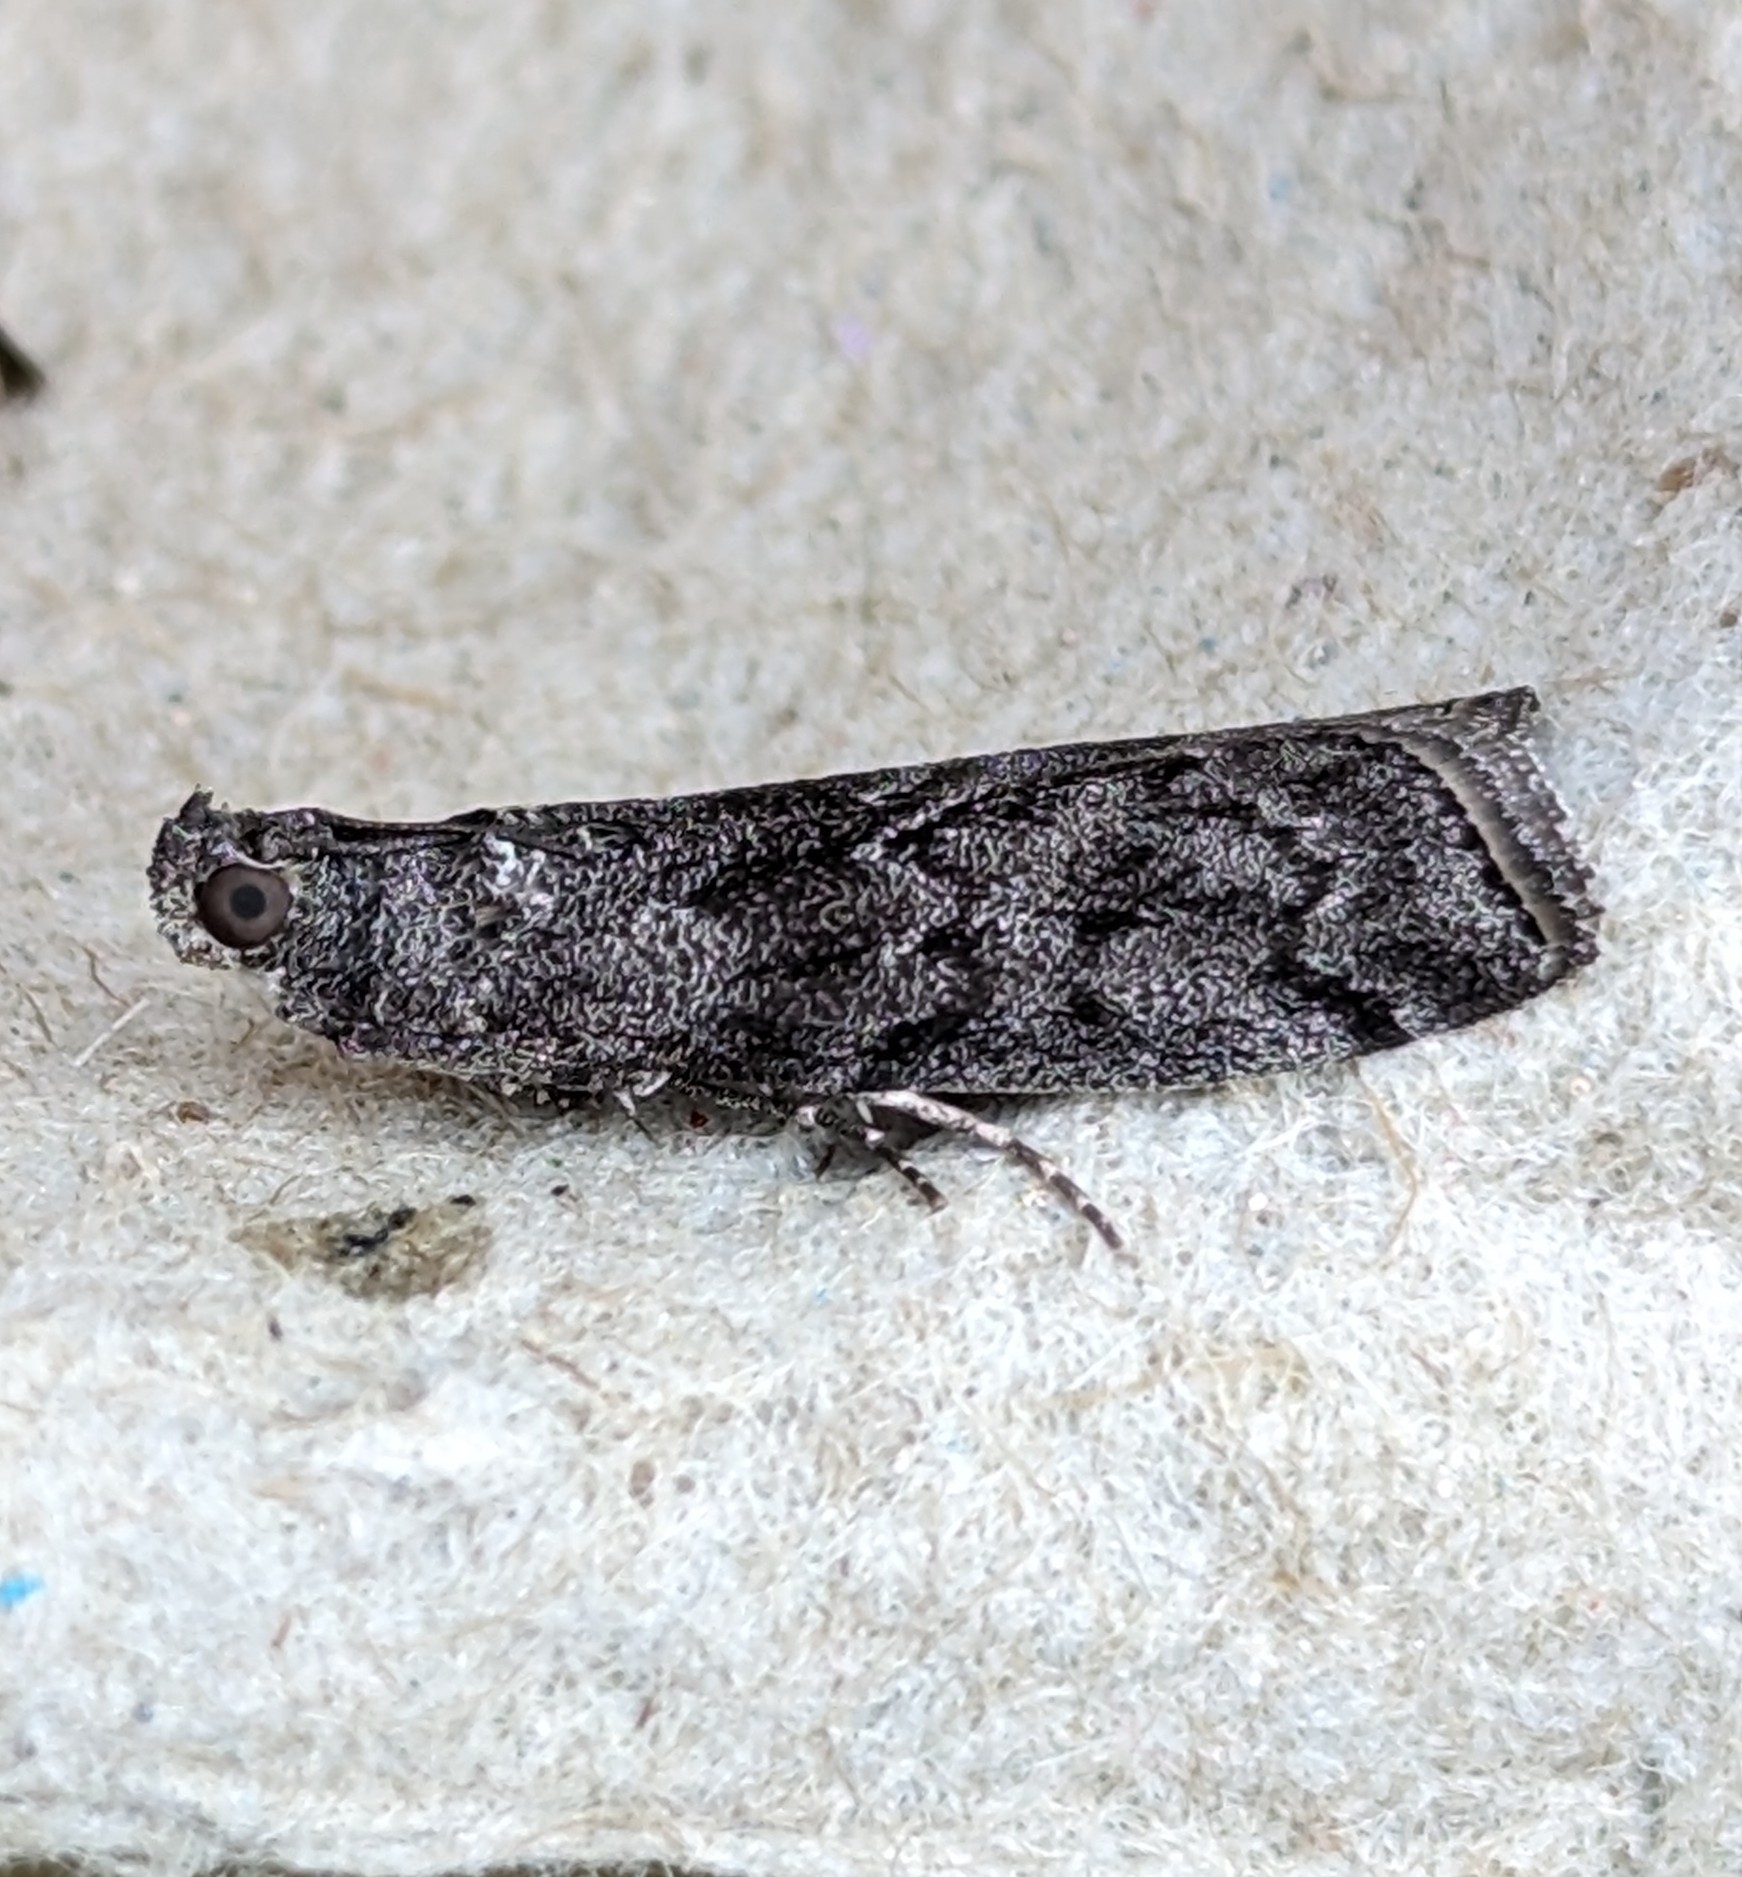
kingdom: Animalia
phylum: Arthropoda
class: Insecta
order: Lepidoptera
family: Pyralidae
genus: Pyla
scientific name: Pyla fusca
